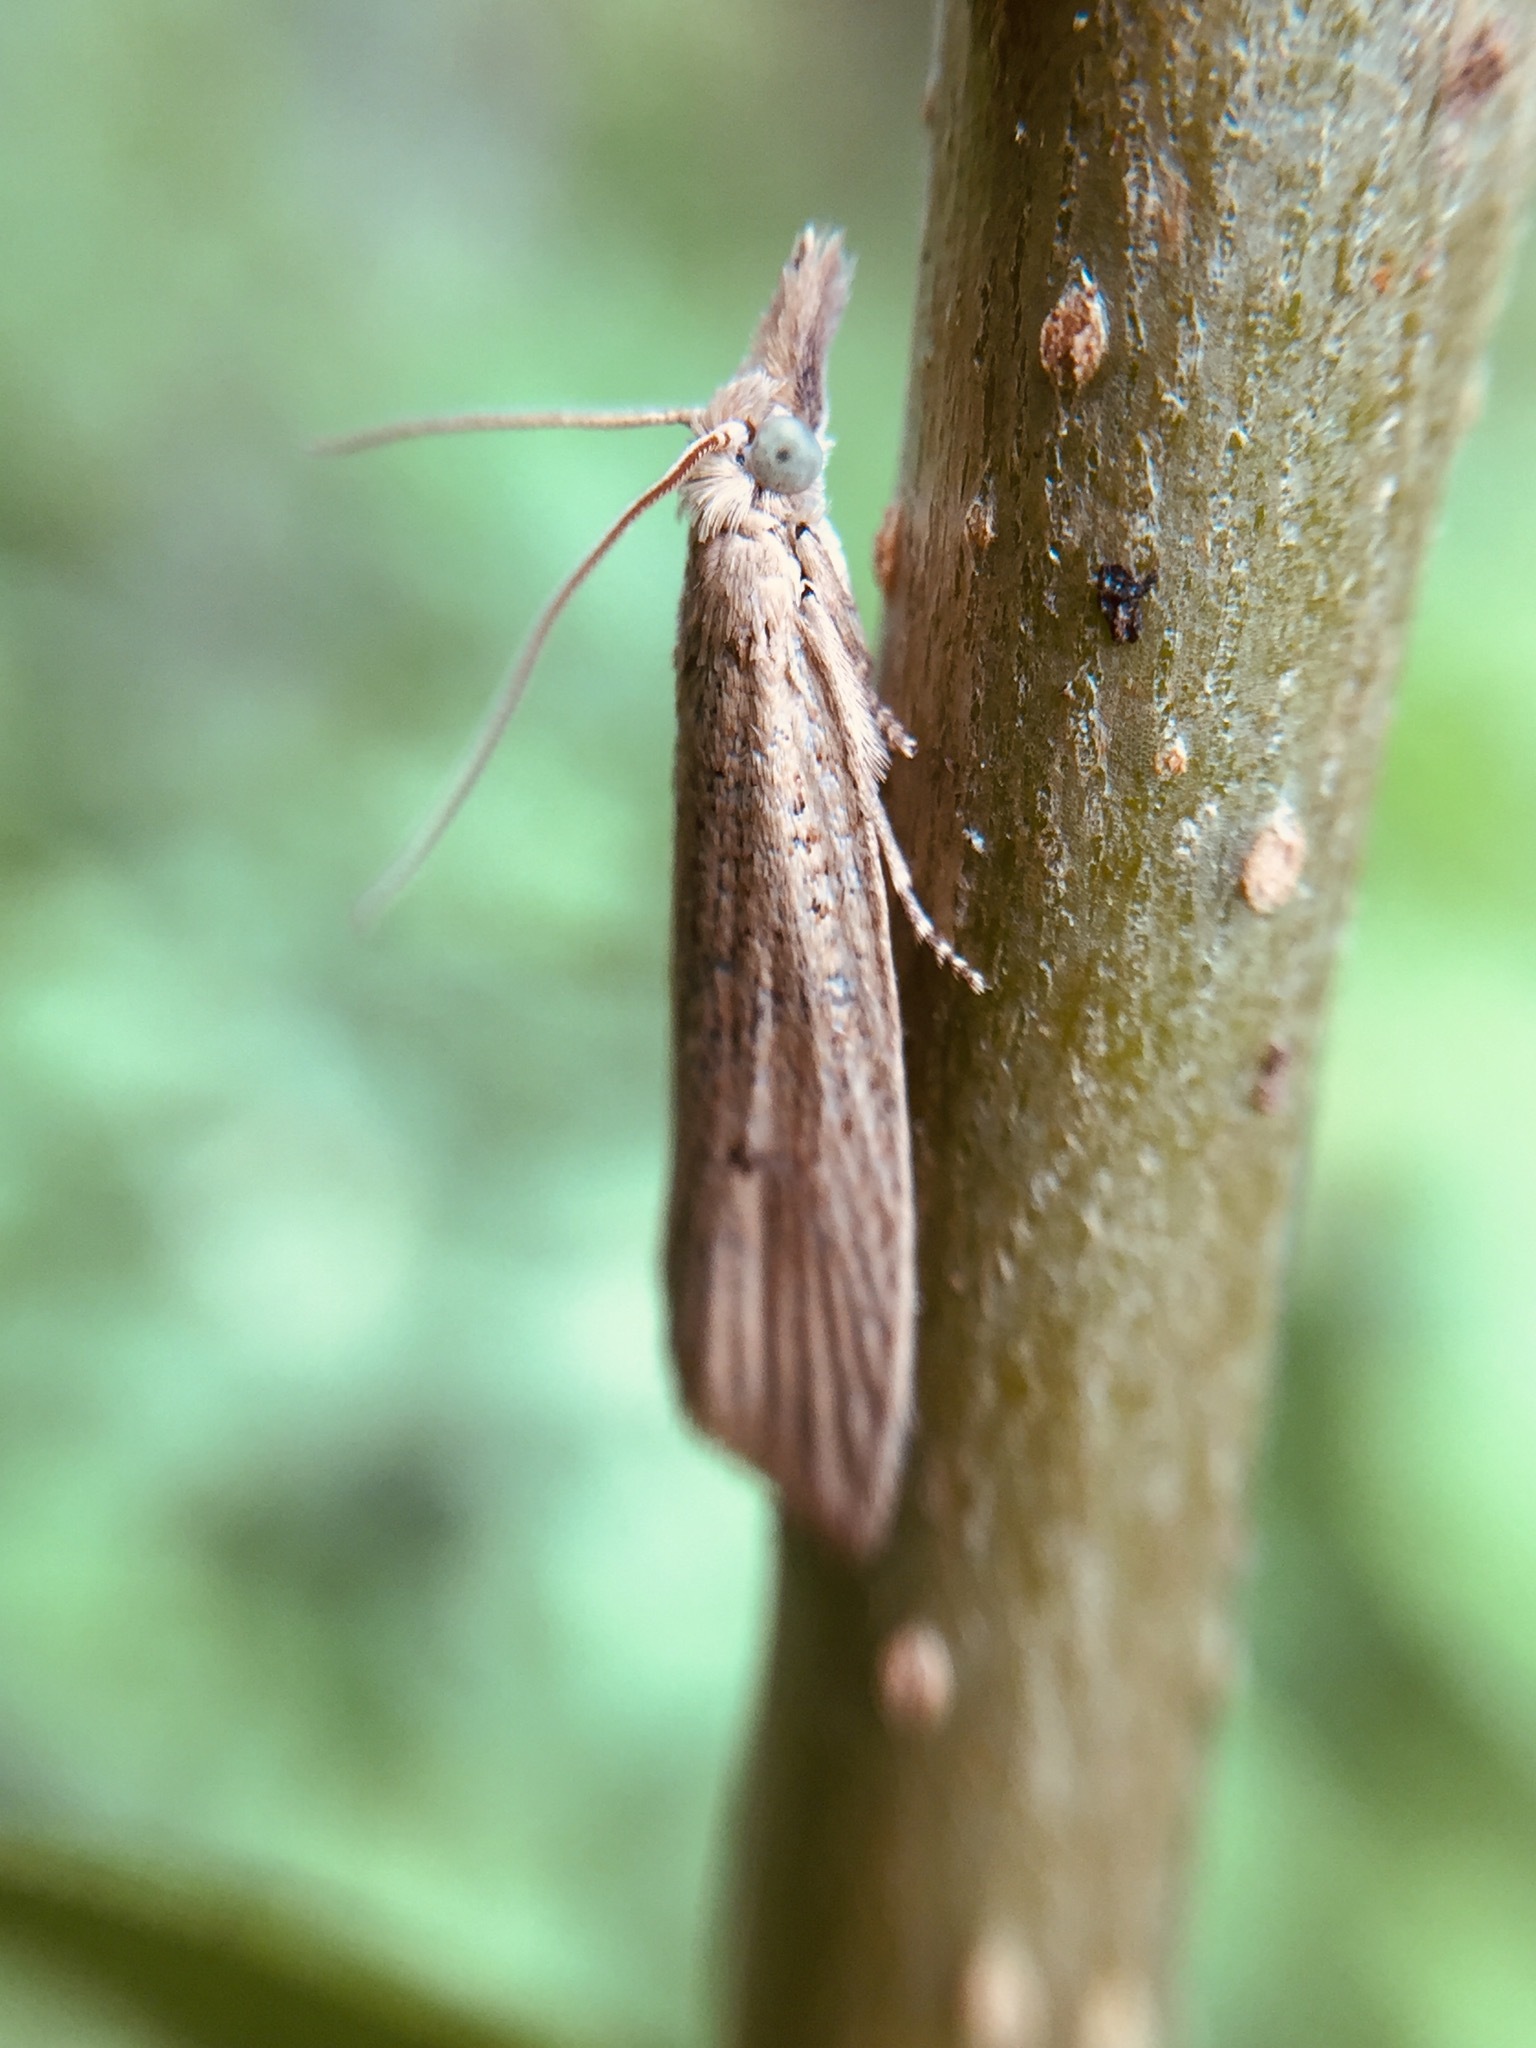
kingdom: Animalia
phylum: Arthropoda
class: Insecta
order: Lepidoptera
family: Tortricidae
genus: Bactra
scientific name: Bactra noteraula
